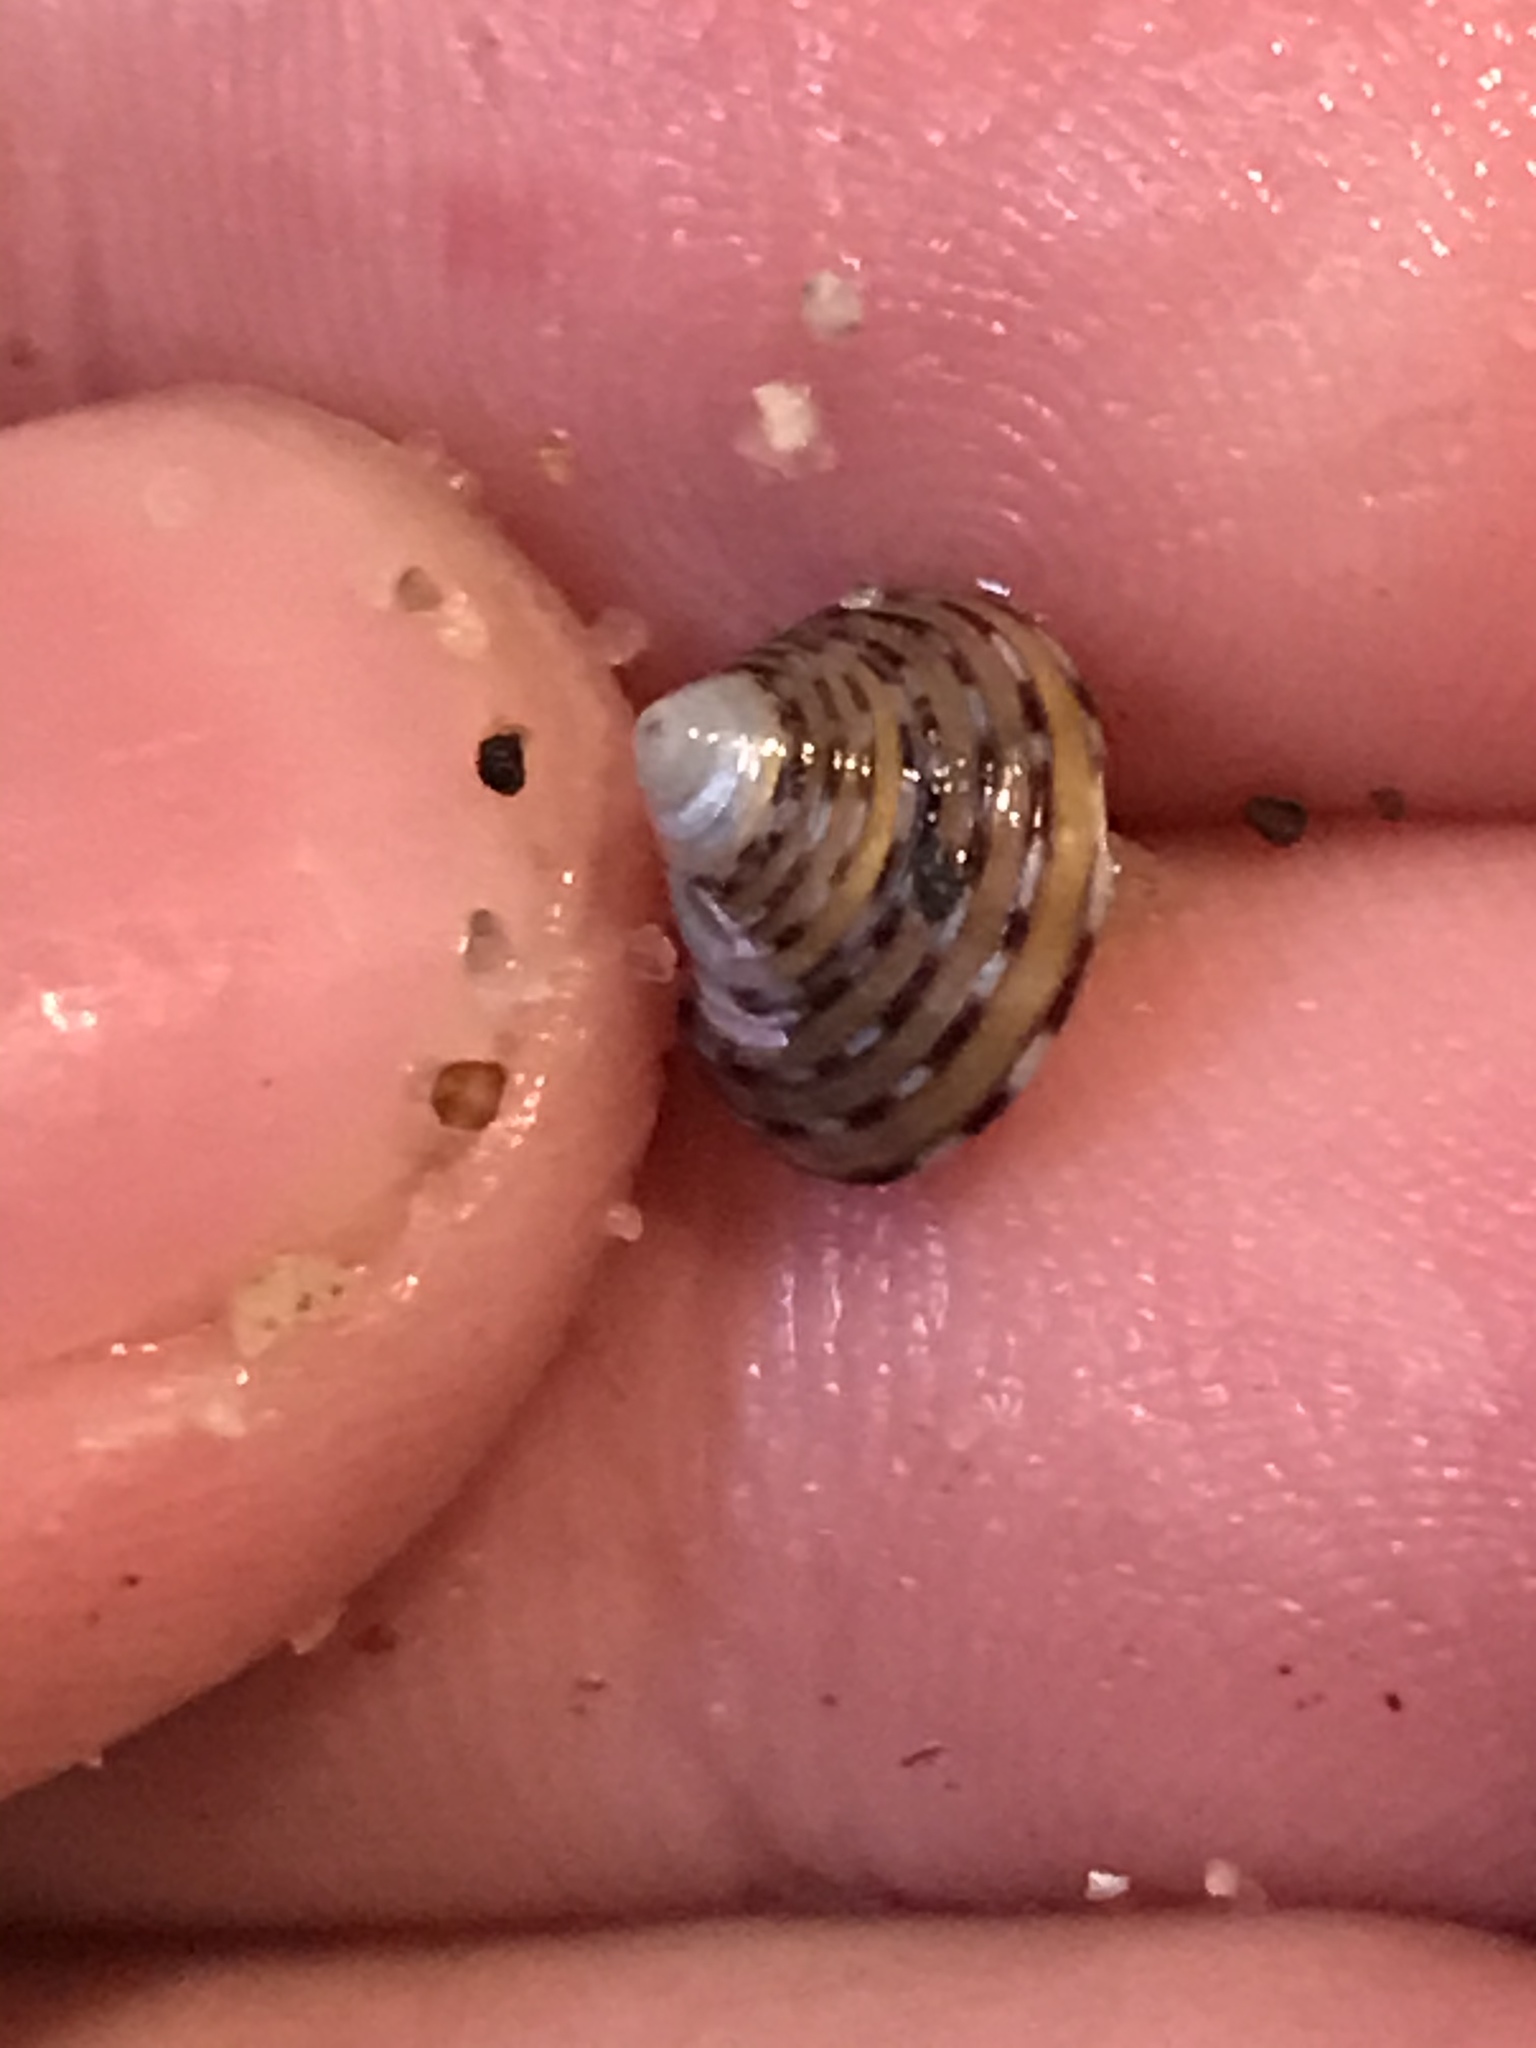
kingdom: Animalia
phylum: Mollusca
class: Gastropoda
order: Trochida
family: Calliostomatidae
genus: Calliostoma
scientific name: Calliostoma tricolor
